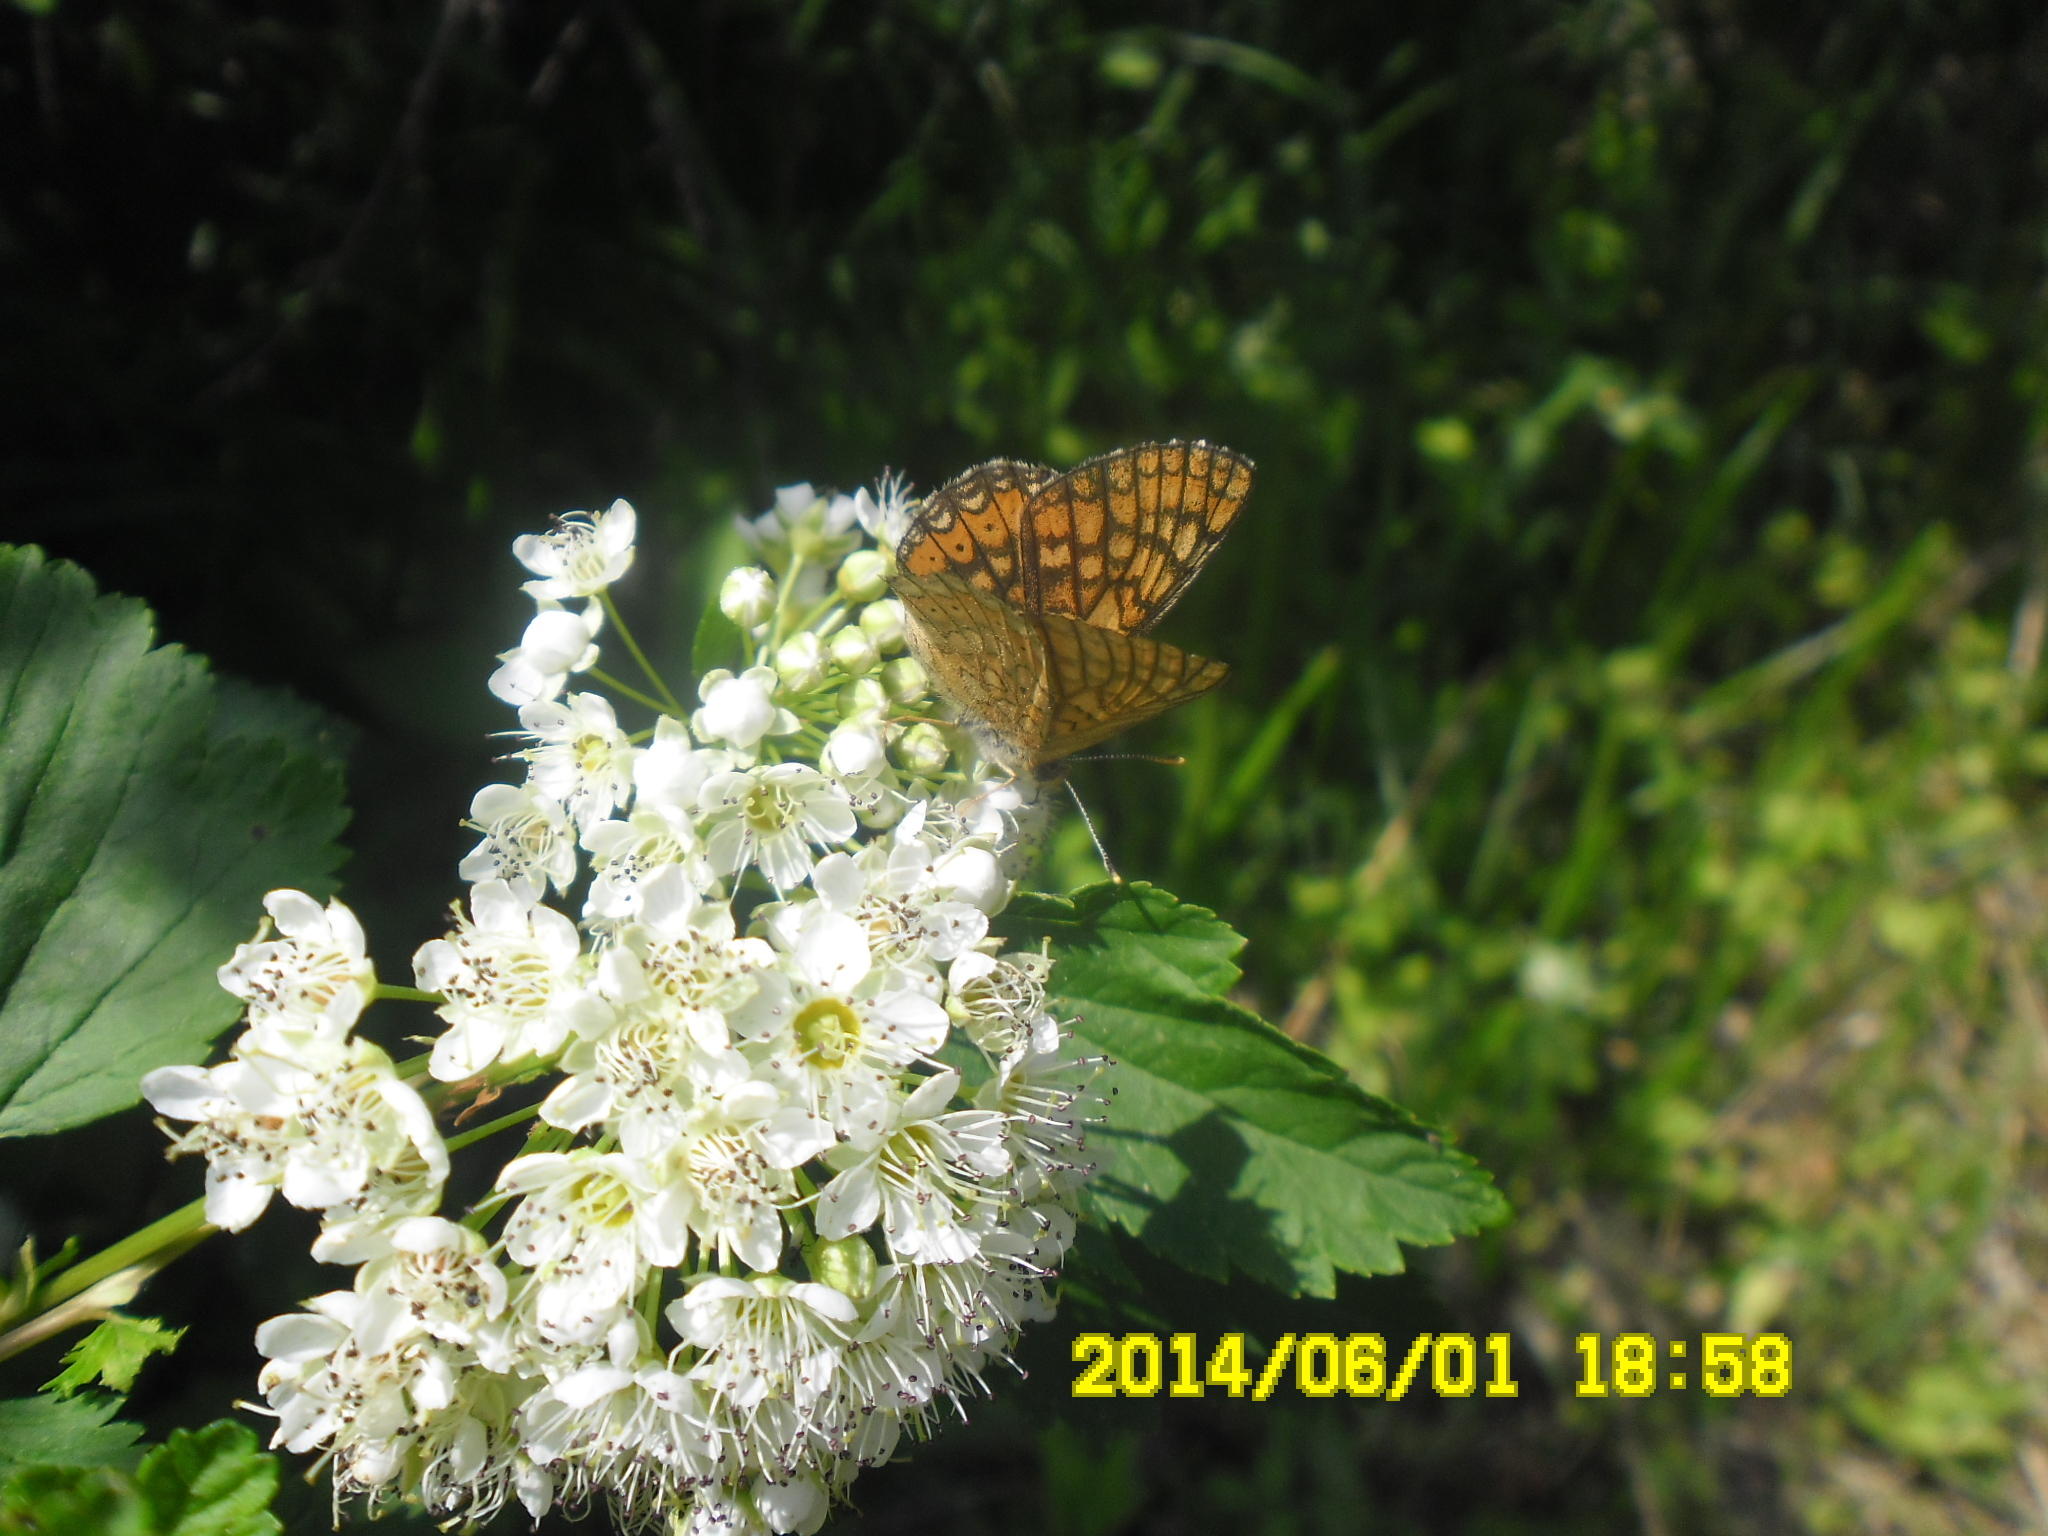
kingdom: Animalia
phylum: Arthropoda
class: Insecta
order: Lepidoptera
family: Nymphalidae
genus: Euphydryas
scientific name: Euphydryas aurinia
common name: Marsh fritillary
